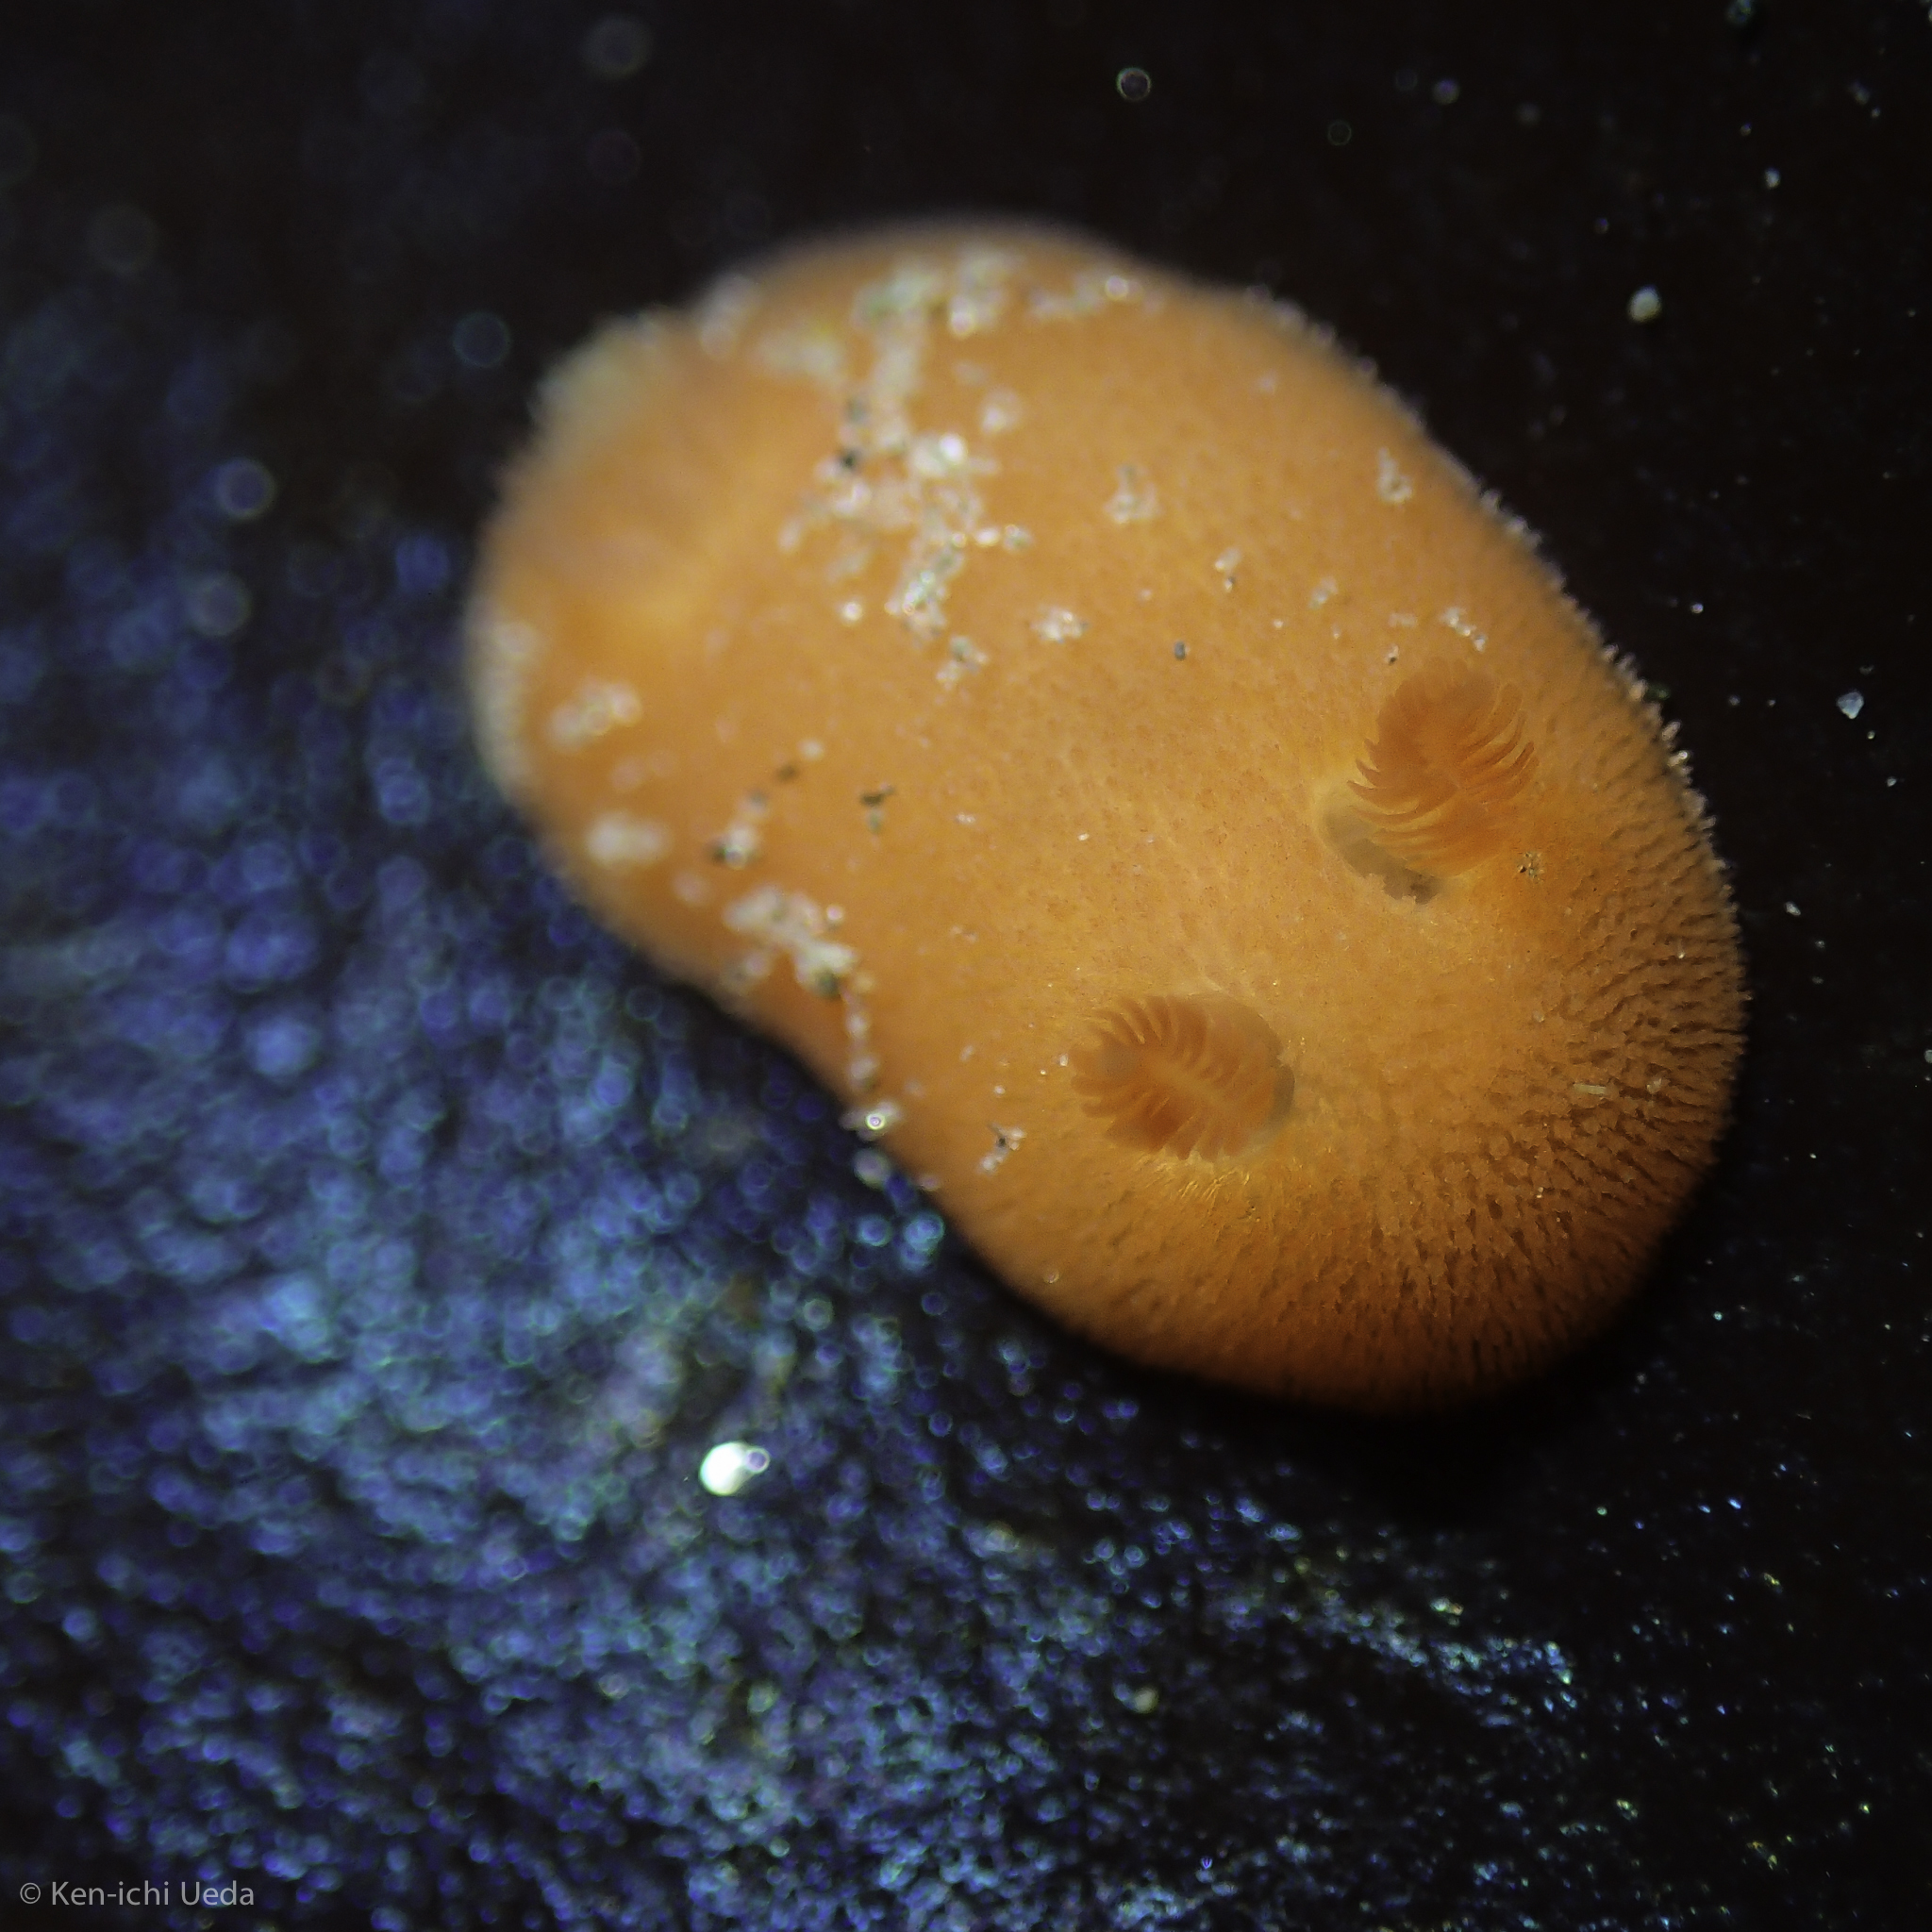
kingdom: Animalia
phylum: Mollusca
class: Gastropoda
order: Nudibranchia
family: Discodorididae
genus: Rostanga
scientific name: Rostanga pulchra
